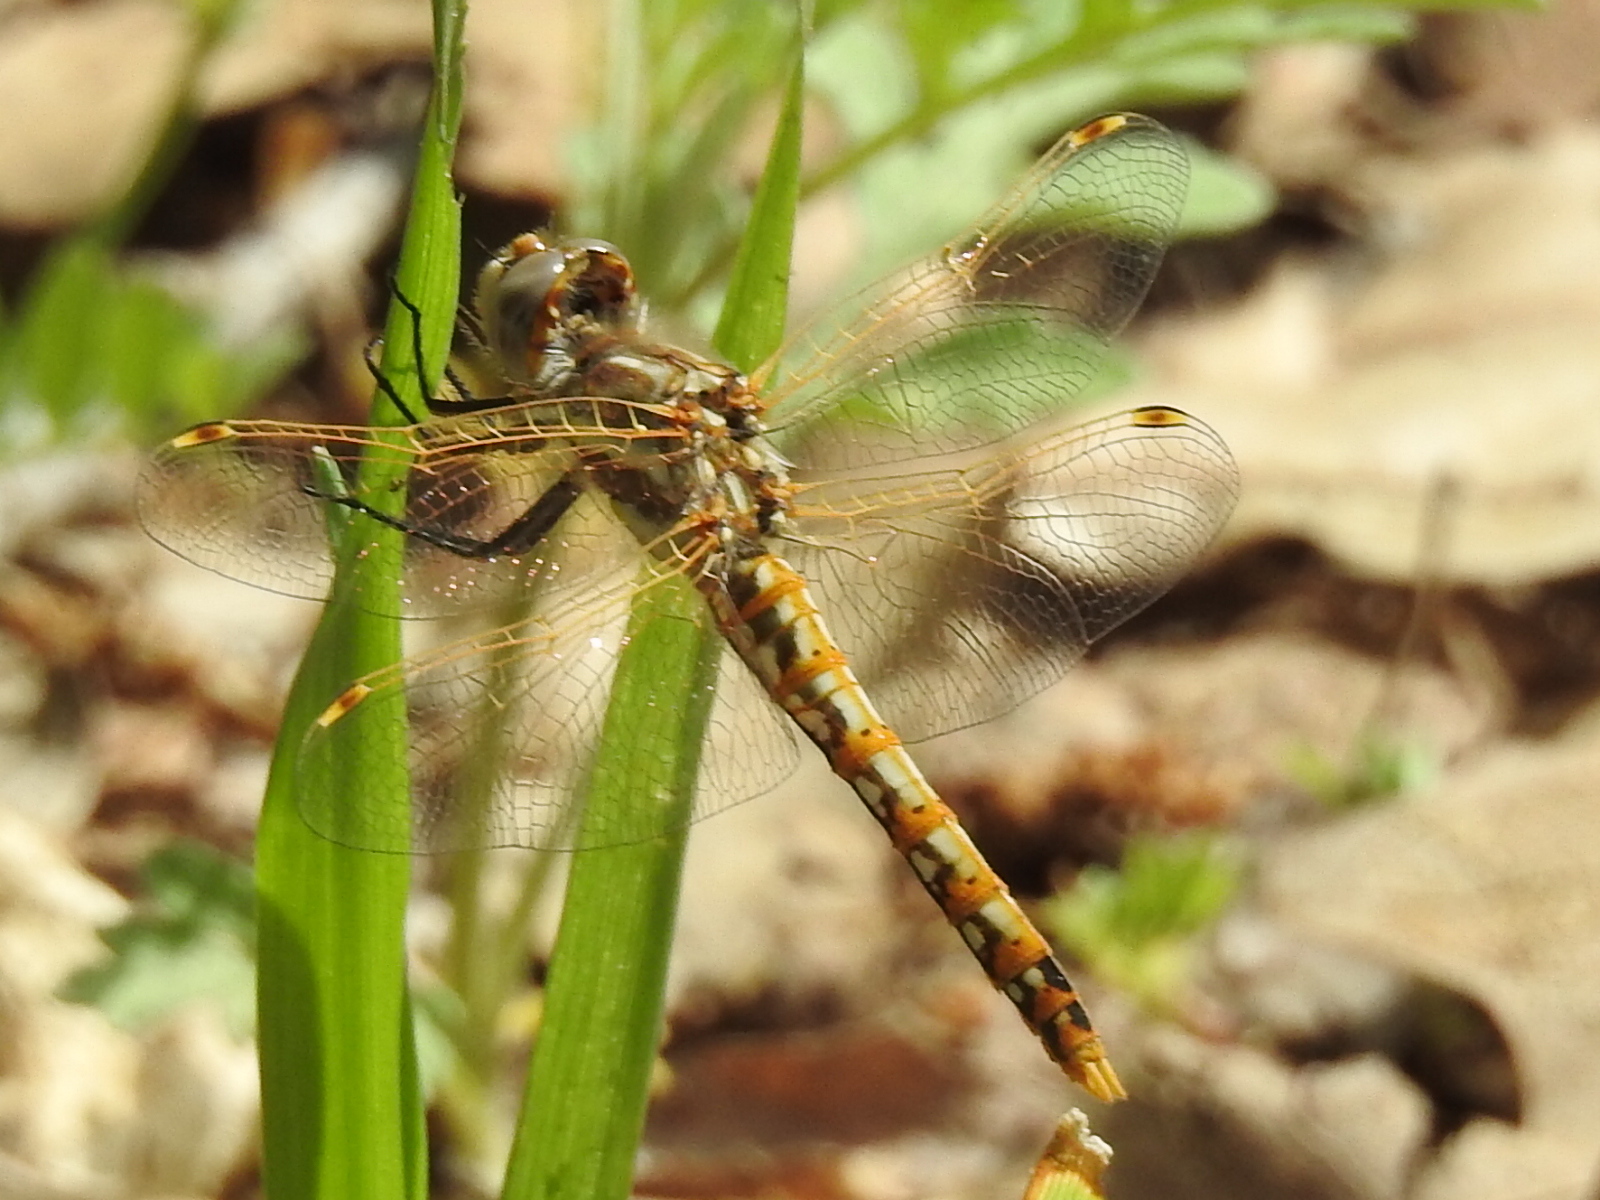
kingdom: Animalia
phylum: Arthropoda
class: Insecta
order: Odonata
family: Libellulidae
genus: Sympetrum
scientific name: Sympetrum corruptum
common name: Variegated meadowhawk
